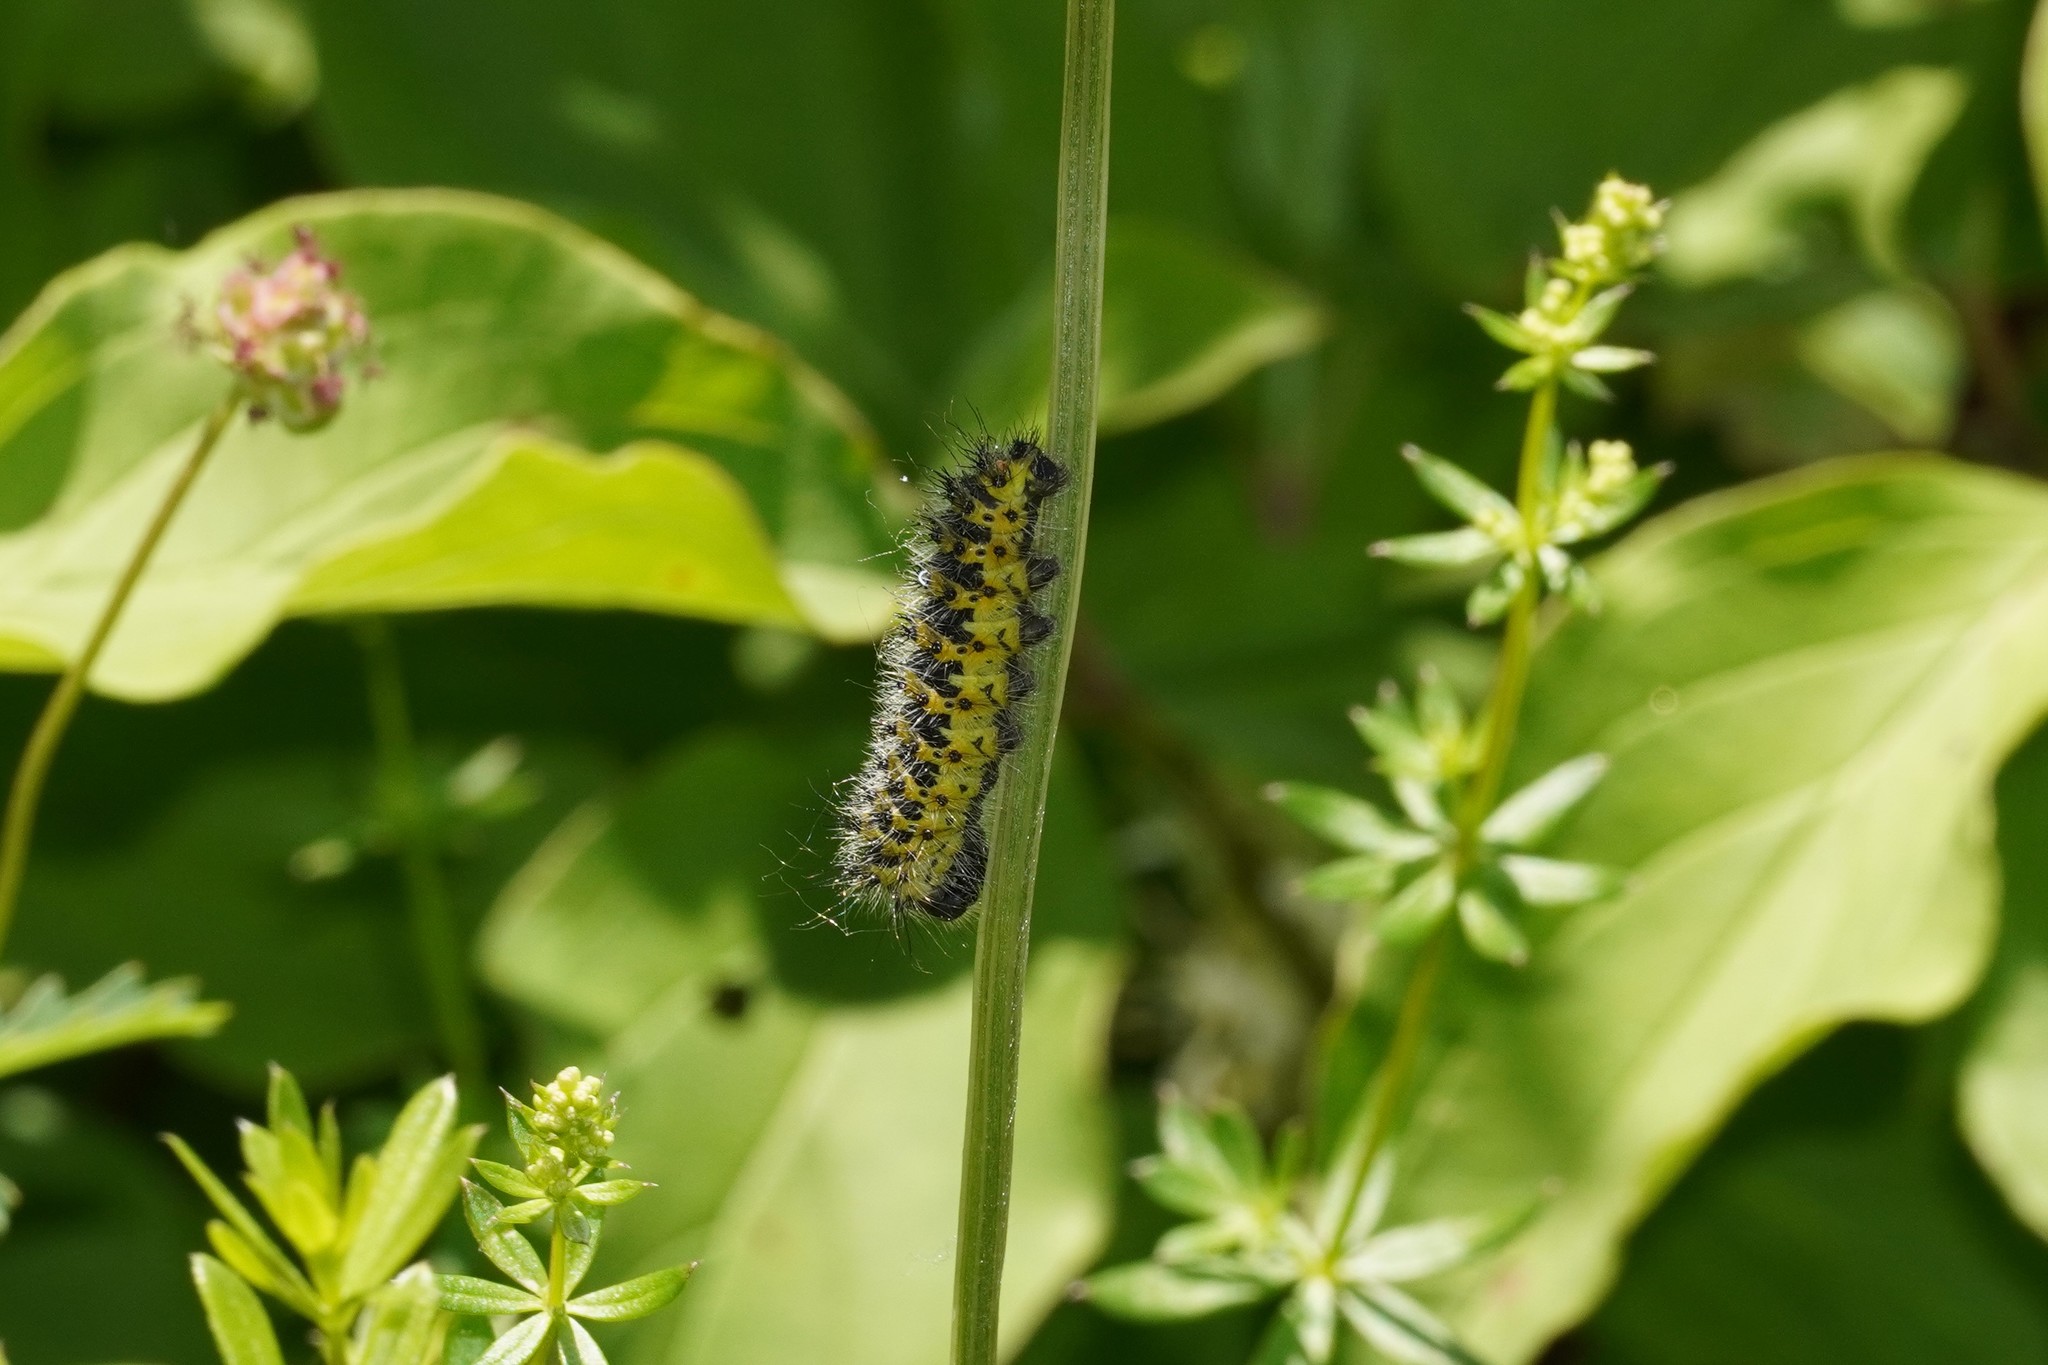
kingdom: Animalia
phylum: Arthropoda
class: Insecta
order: Lepidoptera
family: Saturniidae
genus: Saturnia
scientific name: Saturnia pavonia
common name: Emperor moth
